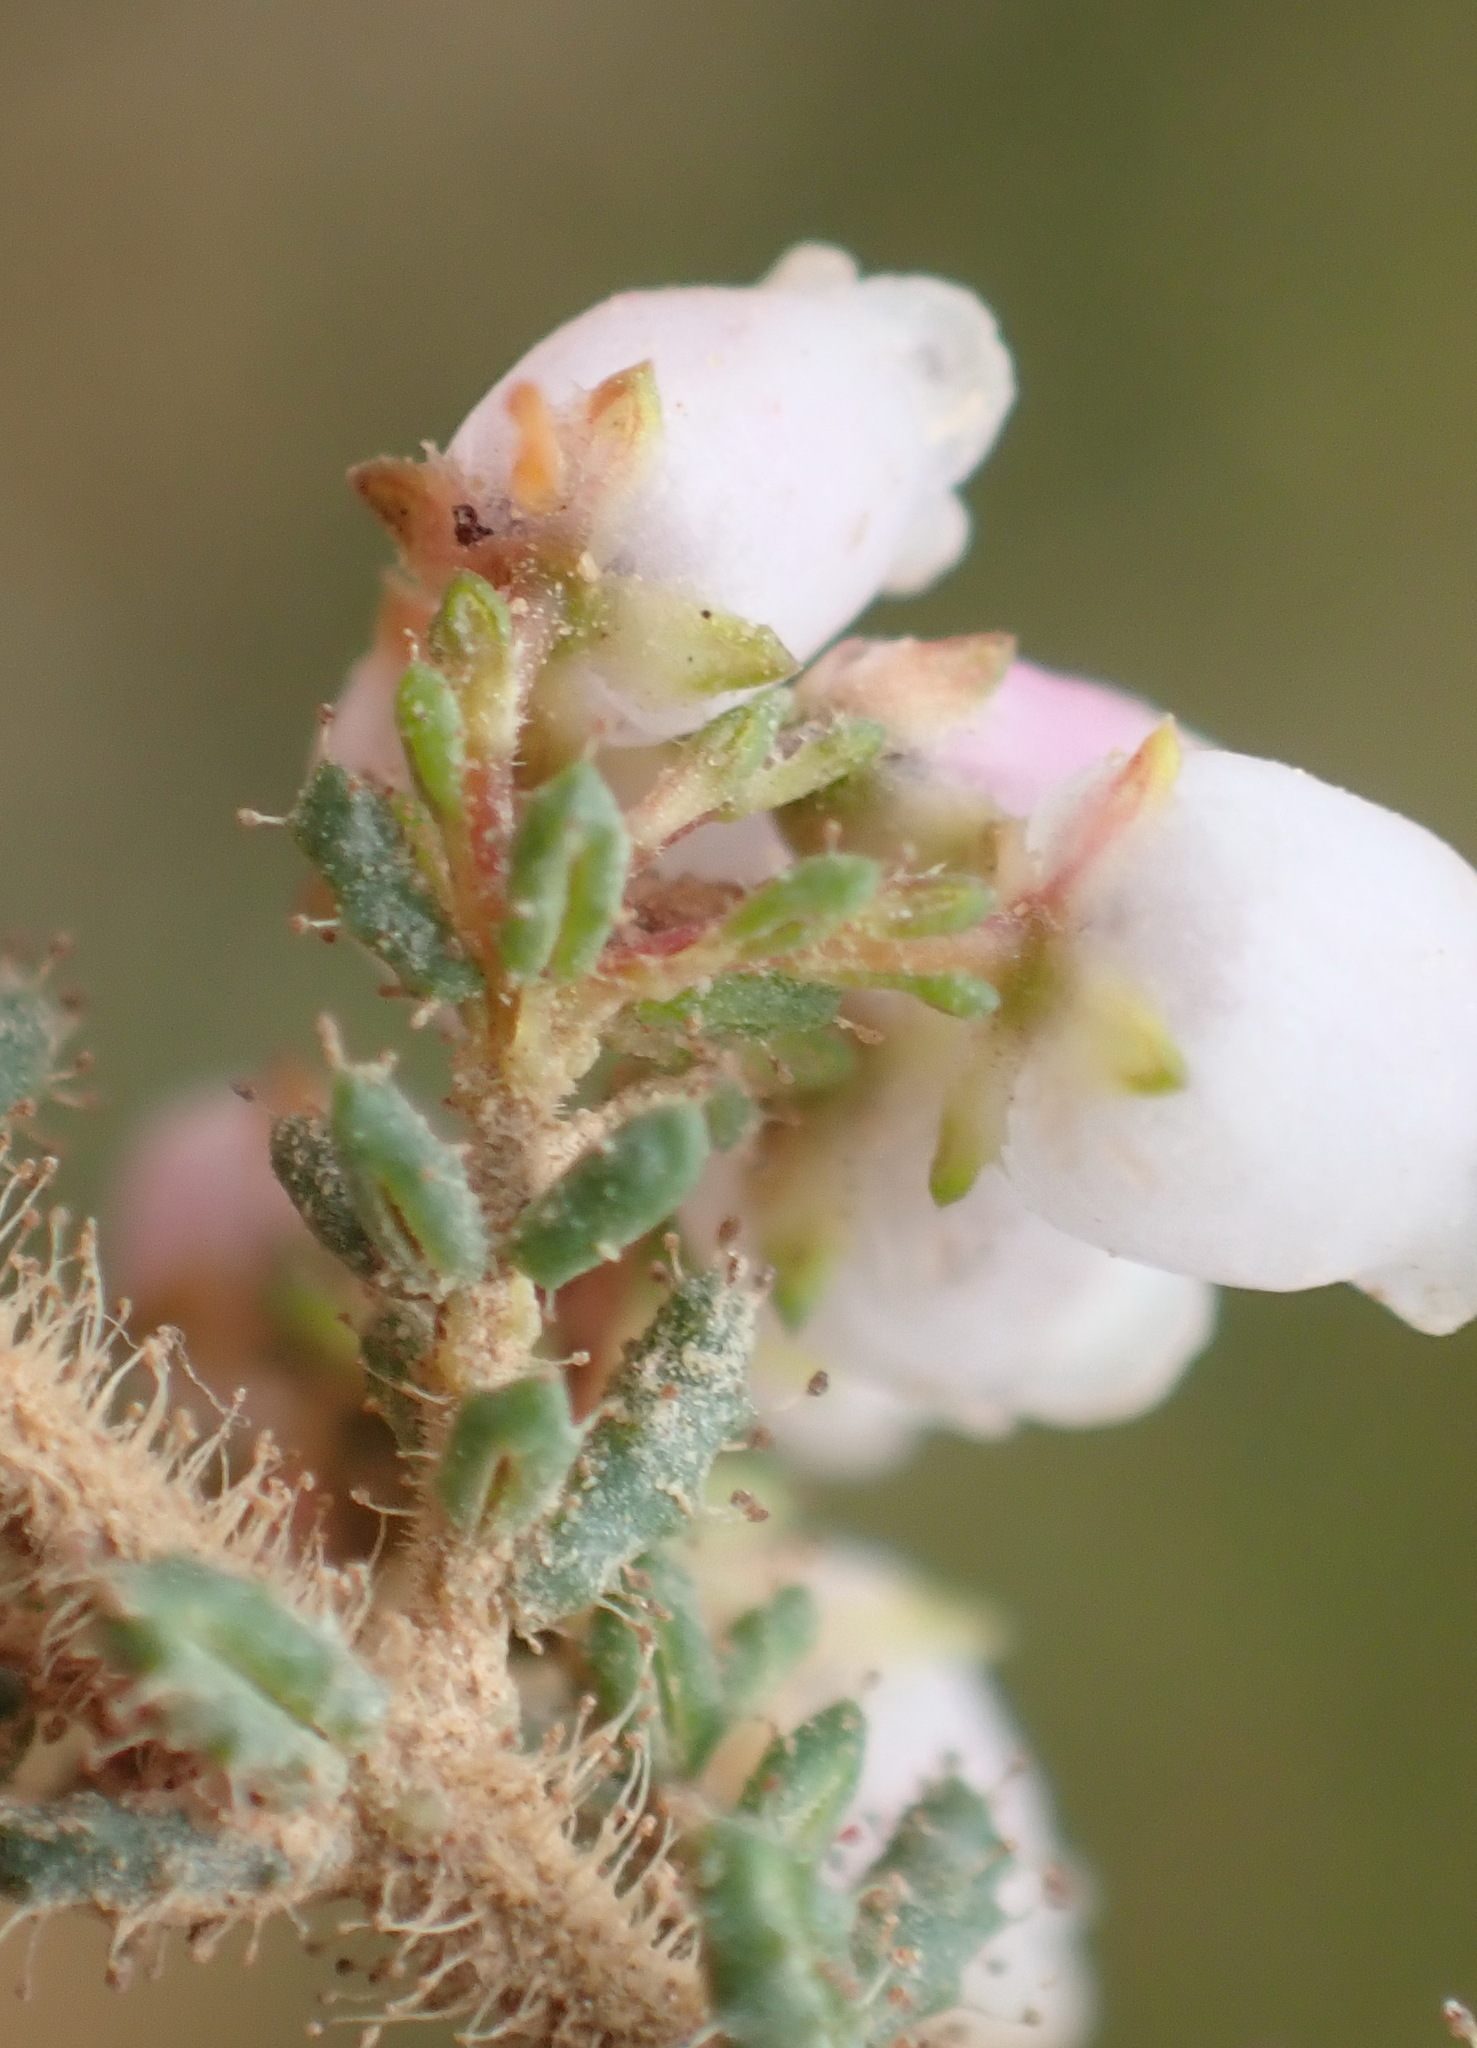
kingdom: Plantae
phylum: Tracheophyta
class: Magnoliopsida
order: Ericales
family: Ericaceae
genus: Erica
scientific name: Erica scabriuscula
